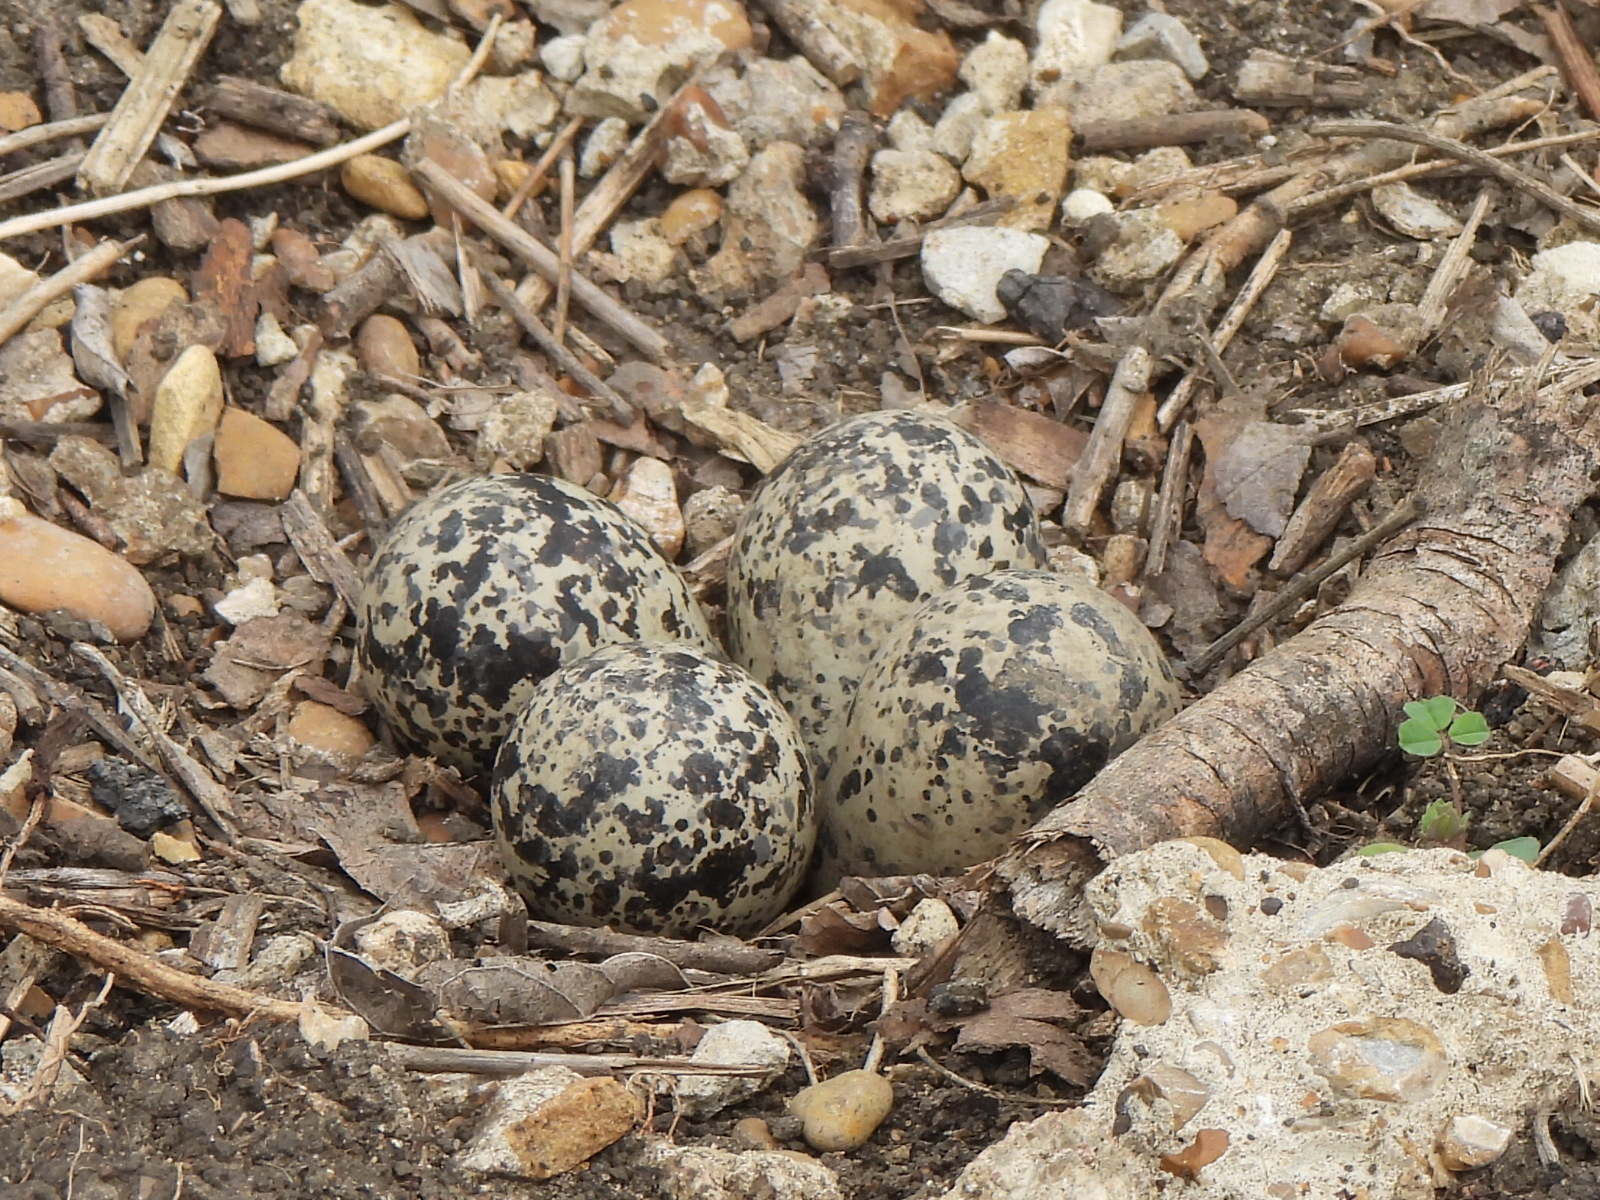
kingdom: Animalia
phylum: Chordata
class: Aves
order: Charadriiformes
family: Charadriidae
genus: Charadrius
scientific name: Charadrius vociferus
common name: Killdeer
